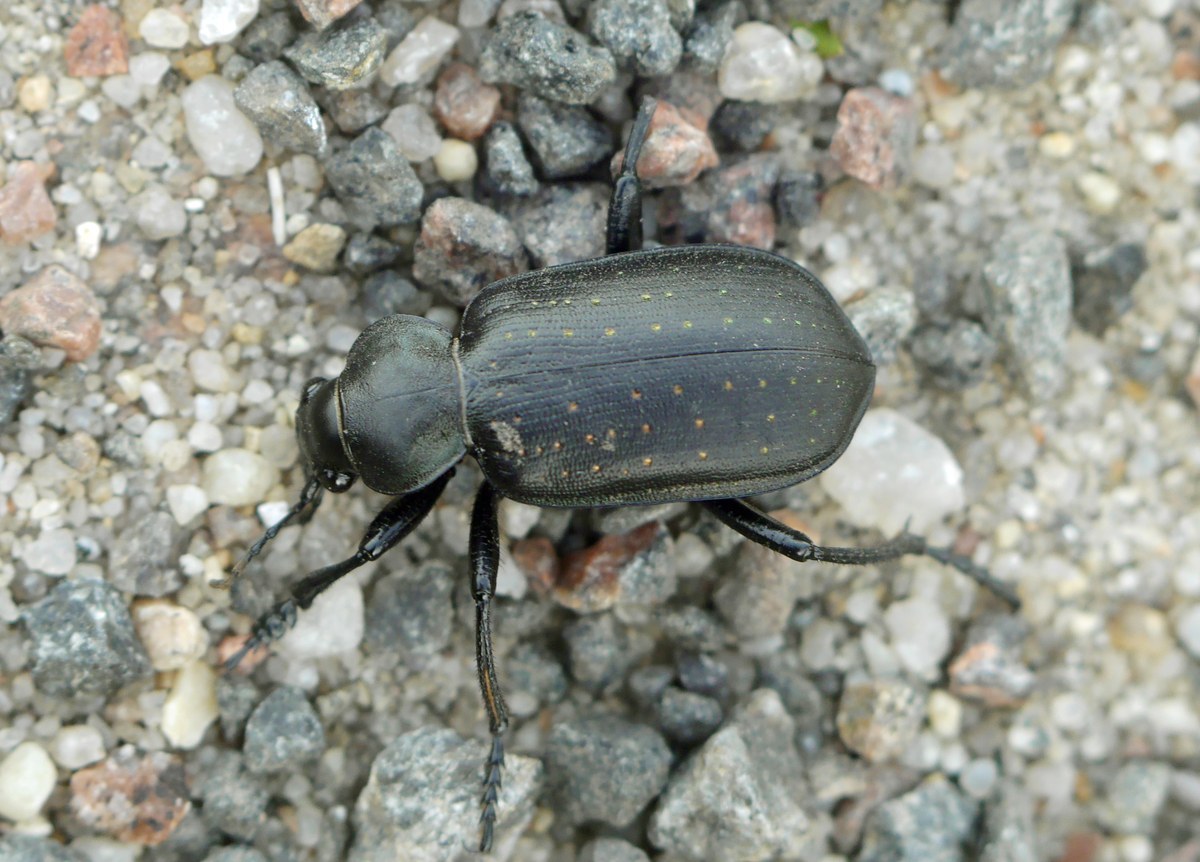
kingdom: Animalia
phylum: Arthropoda
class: Insecta
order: Coleoptera
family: Carabidae
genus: Calosoma
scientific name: Calosoma maderae
